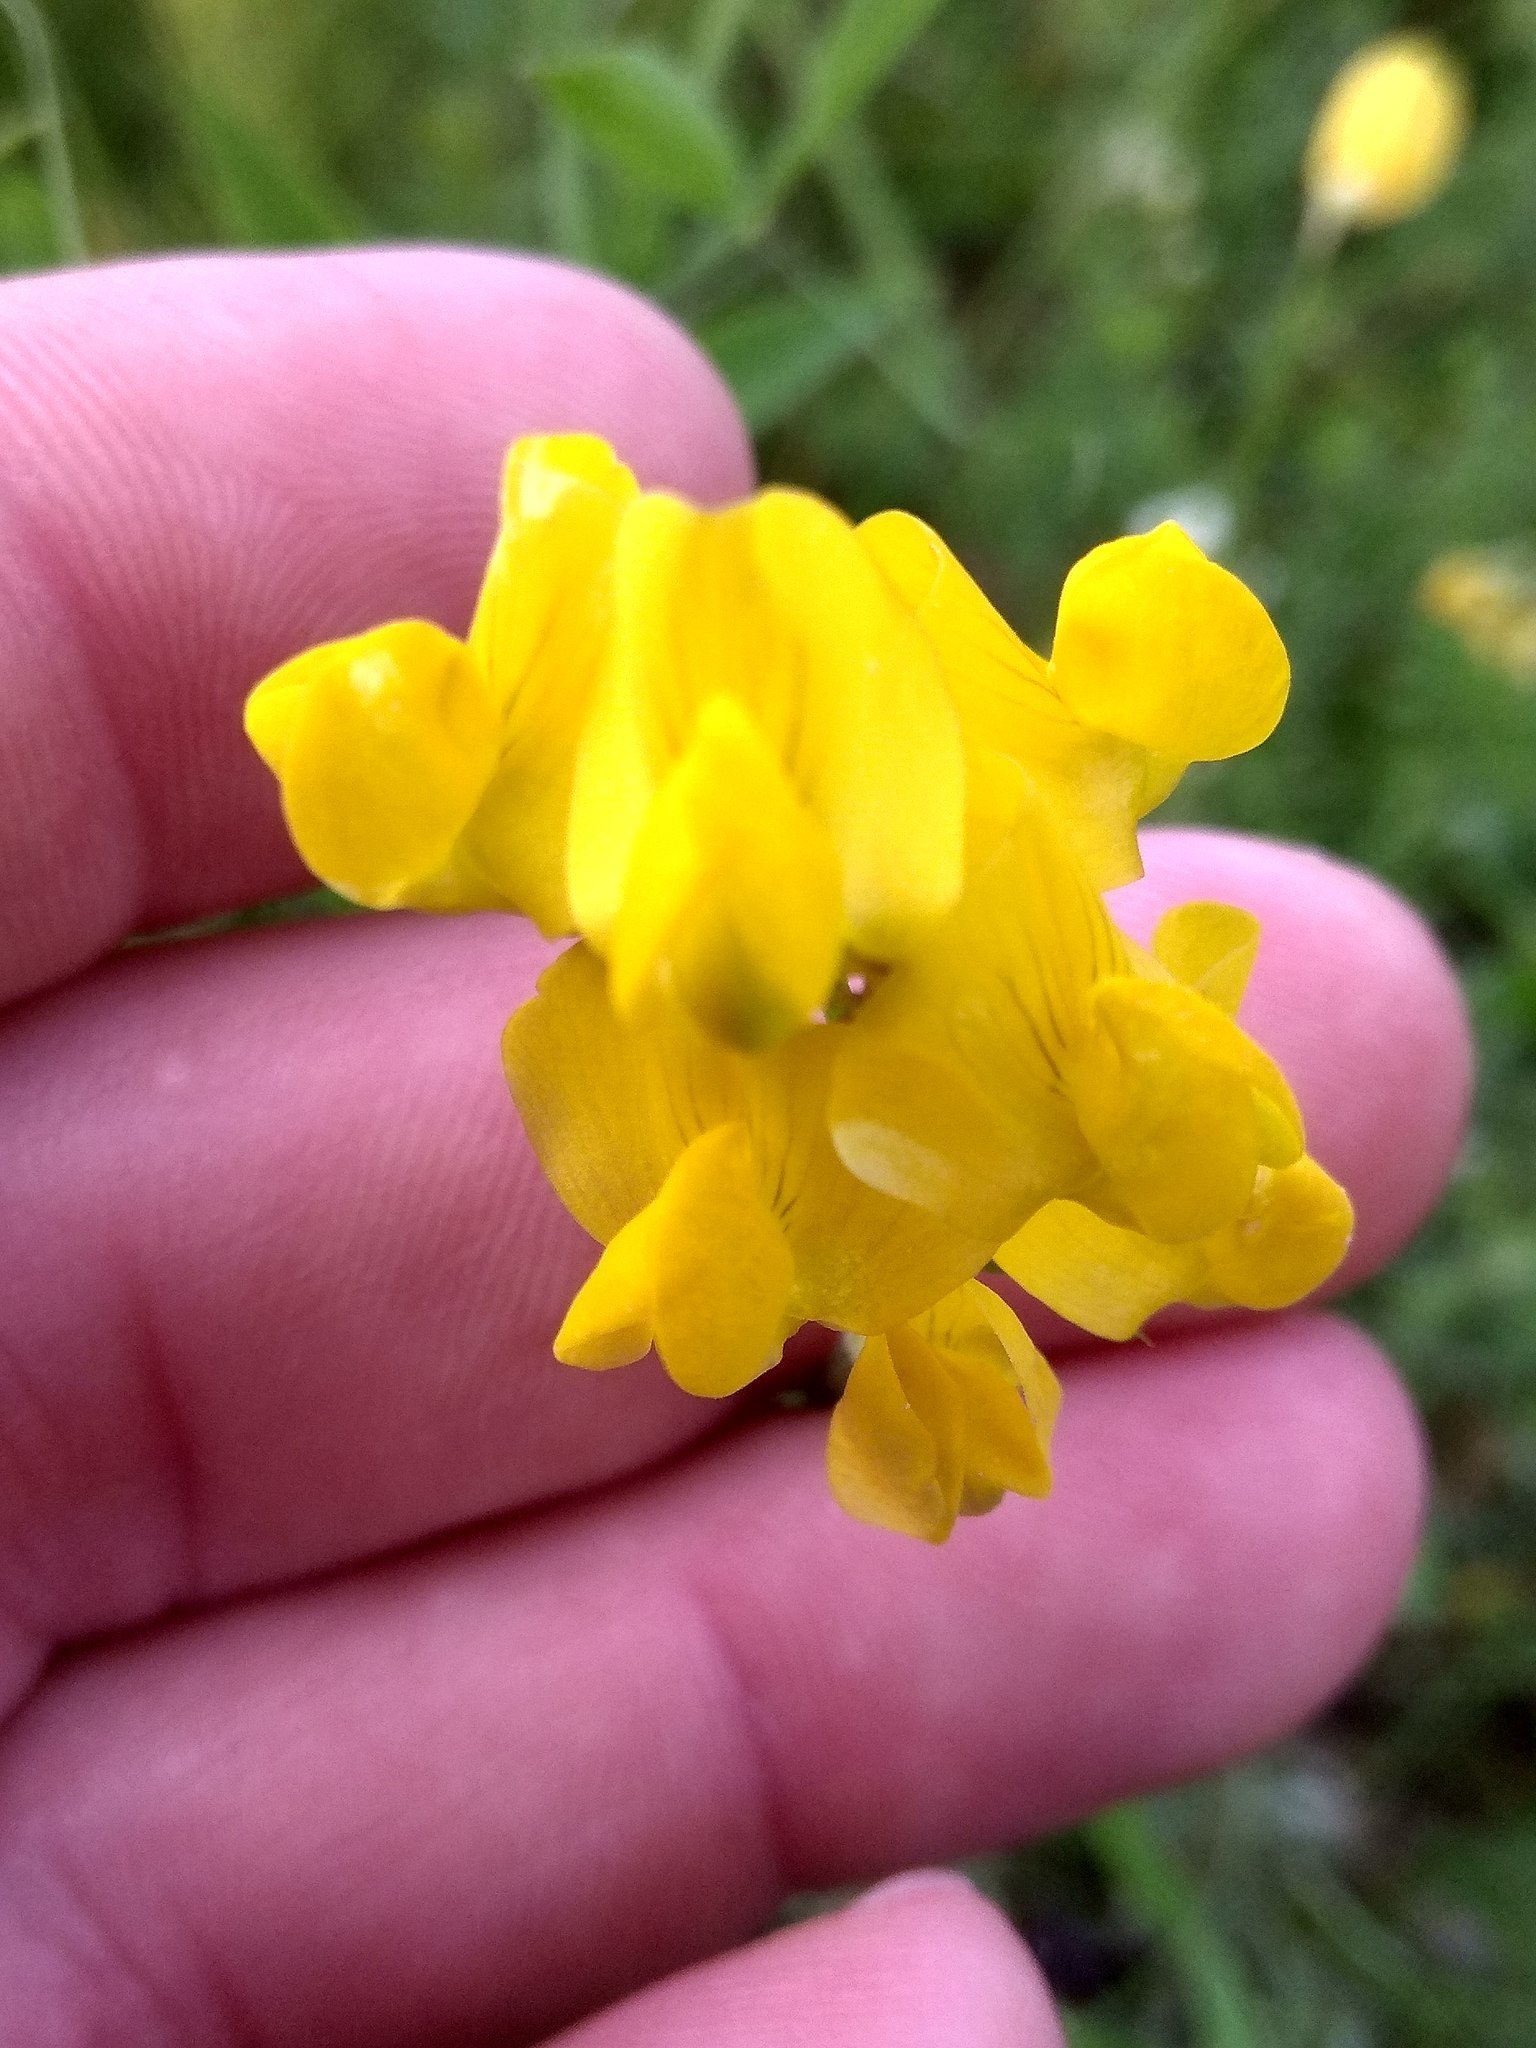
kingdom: Plantae
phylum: Tracheophyta
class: Magnoliopsida
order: Fabales
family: Fabaceae
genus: Lathyrus
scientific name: Lathyrus pratensis
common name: Meadow vetchling
